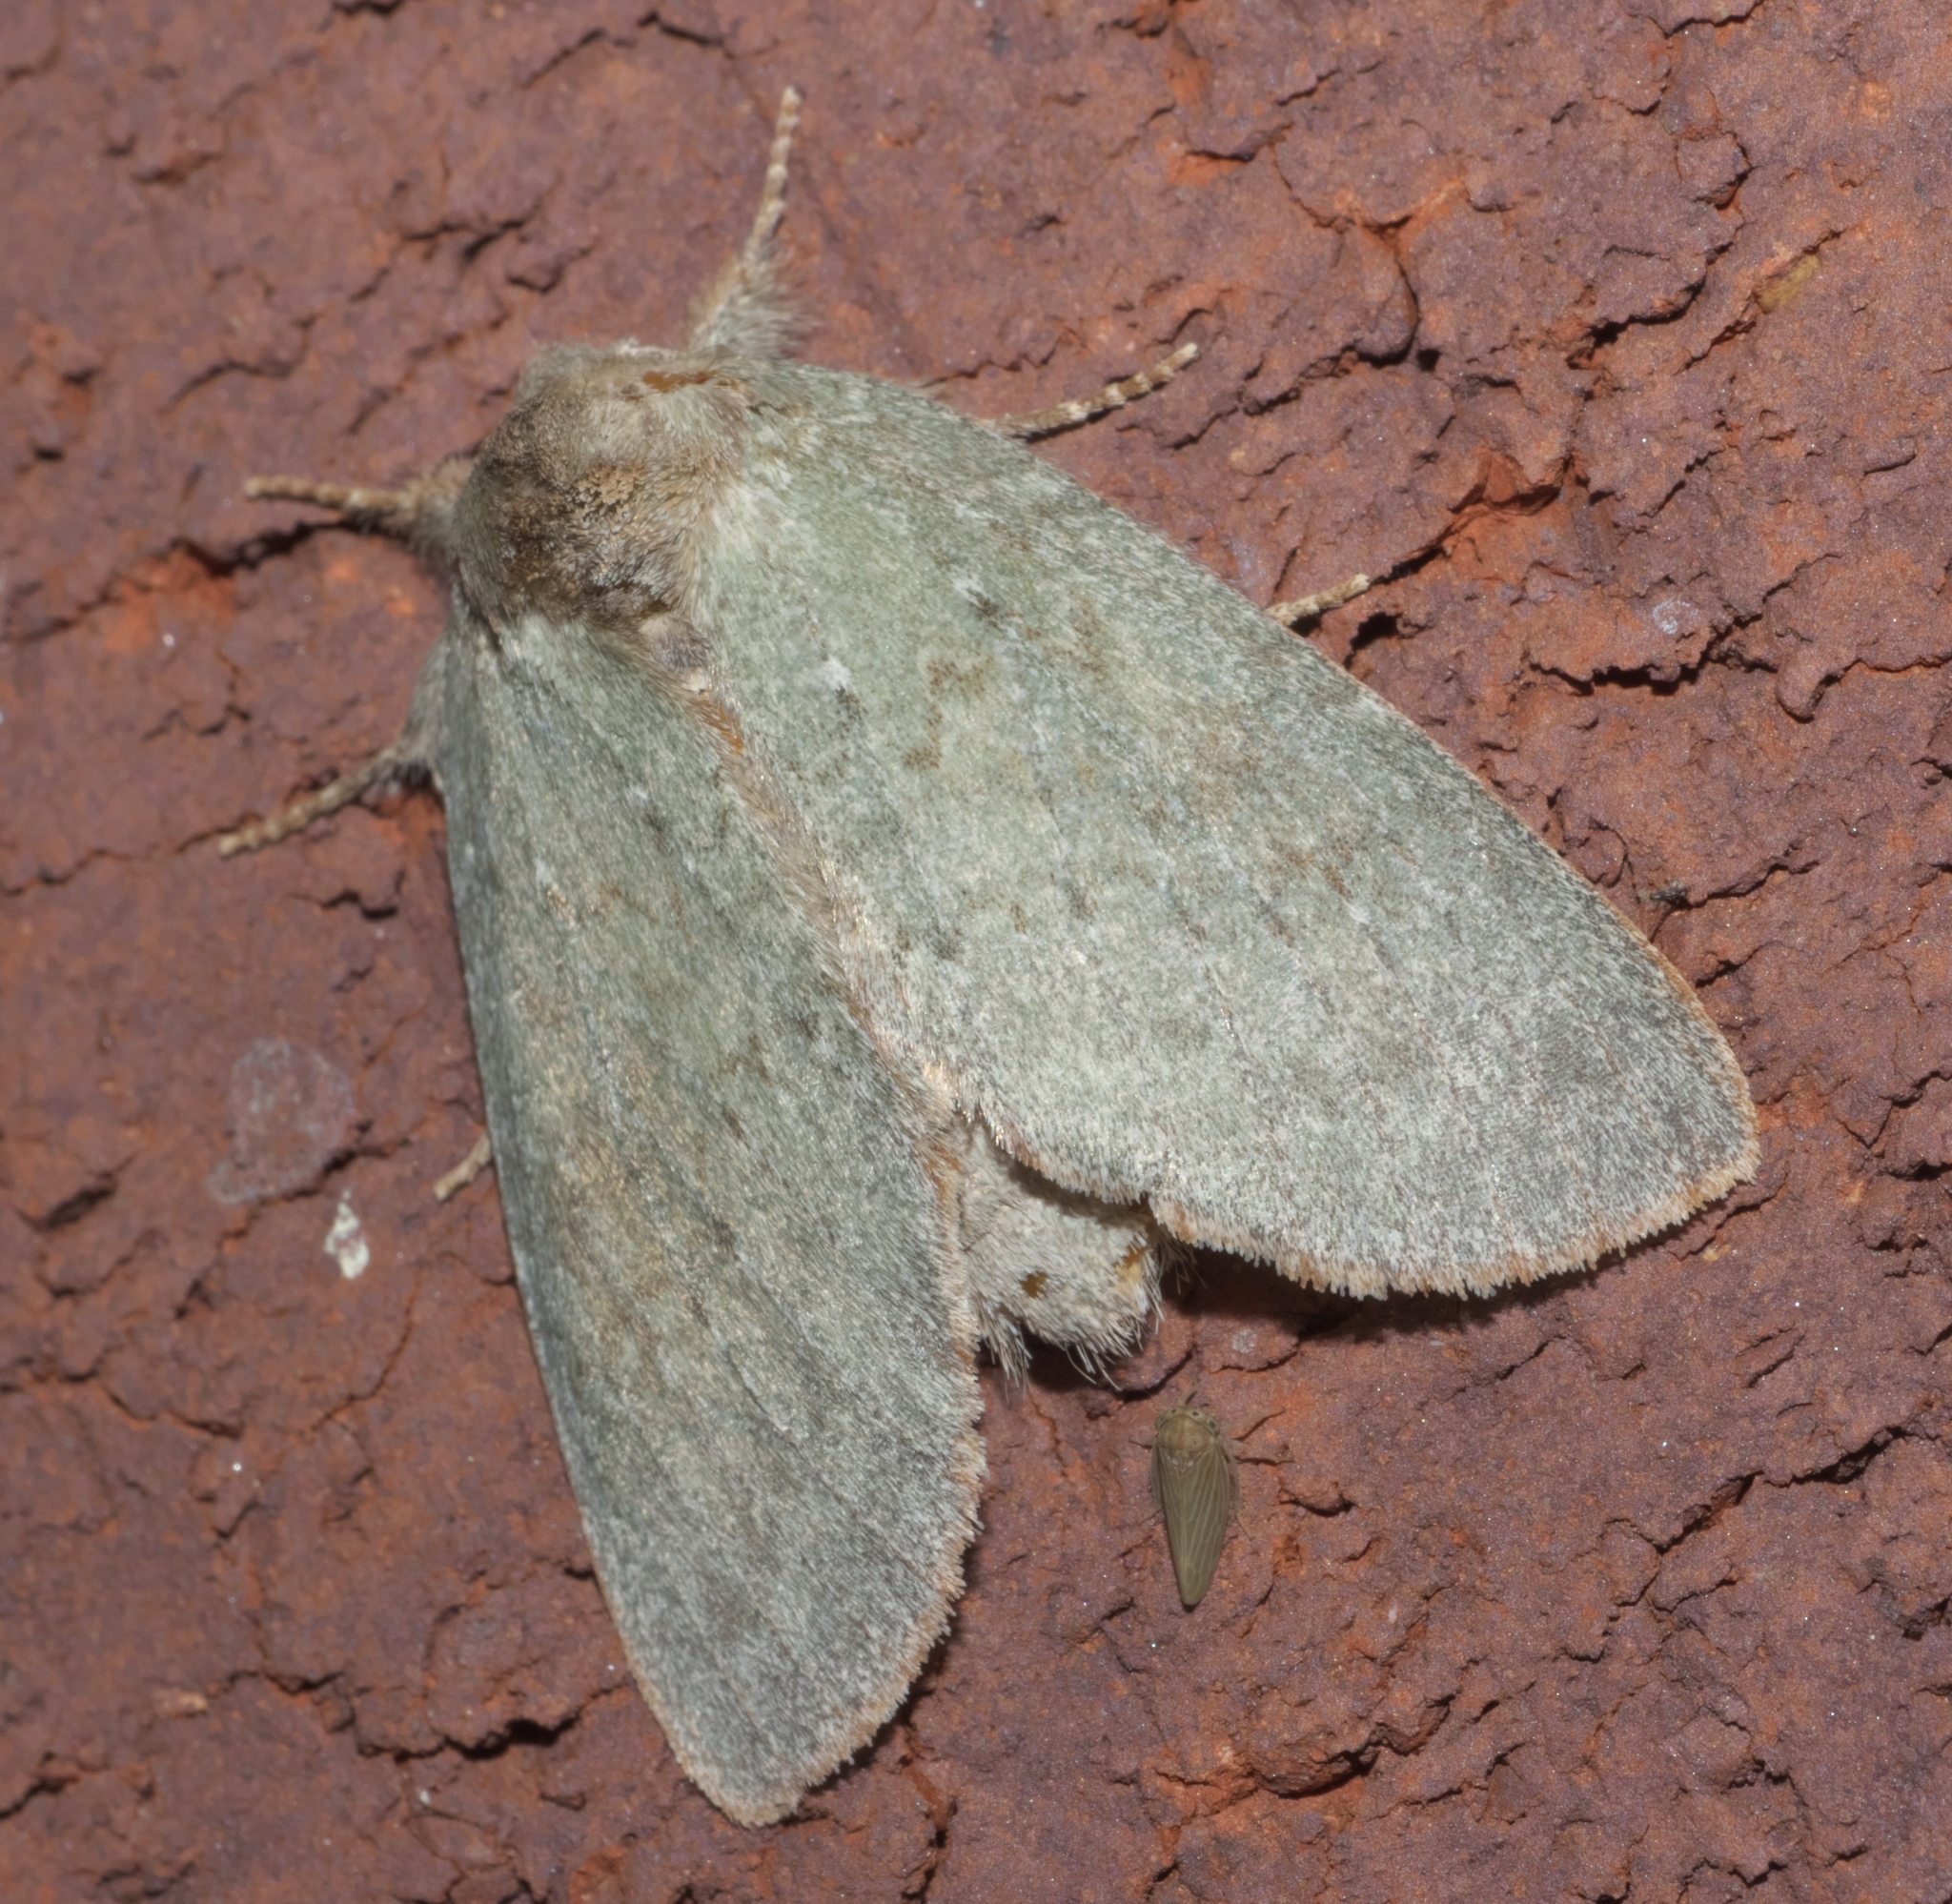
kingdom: Animalia
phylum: Arthropoda
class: Insecta
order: Lepidoptera
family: Notodontidae
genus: Misogada
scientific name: Misogada unicolor
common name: Drab prominent
